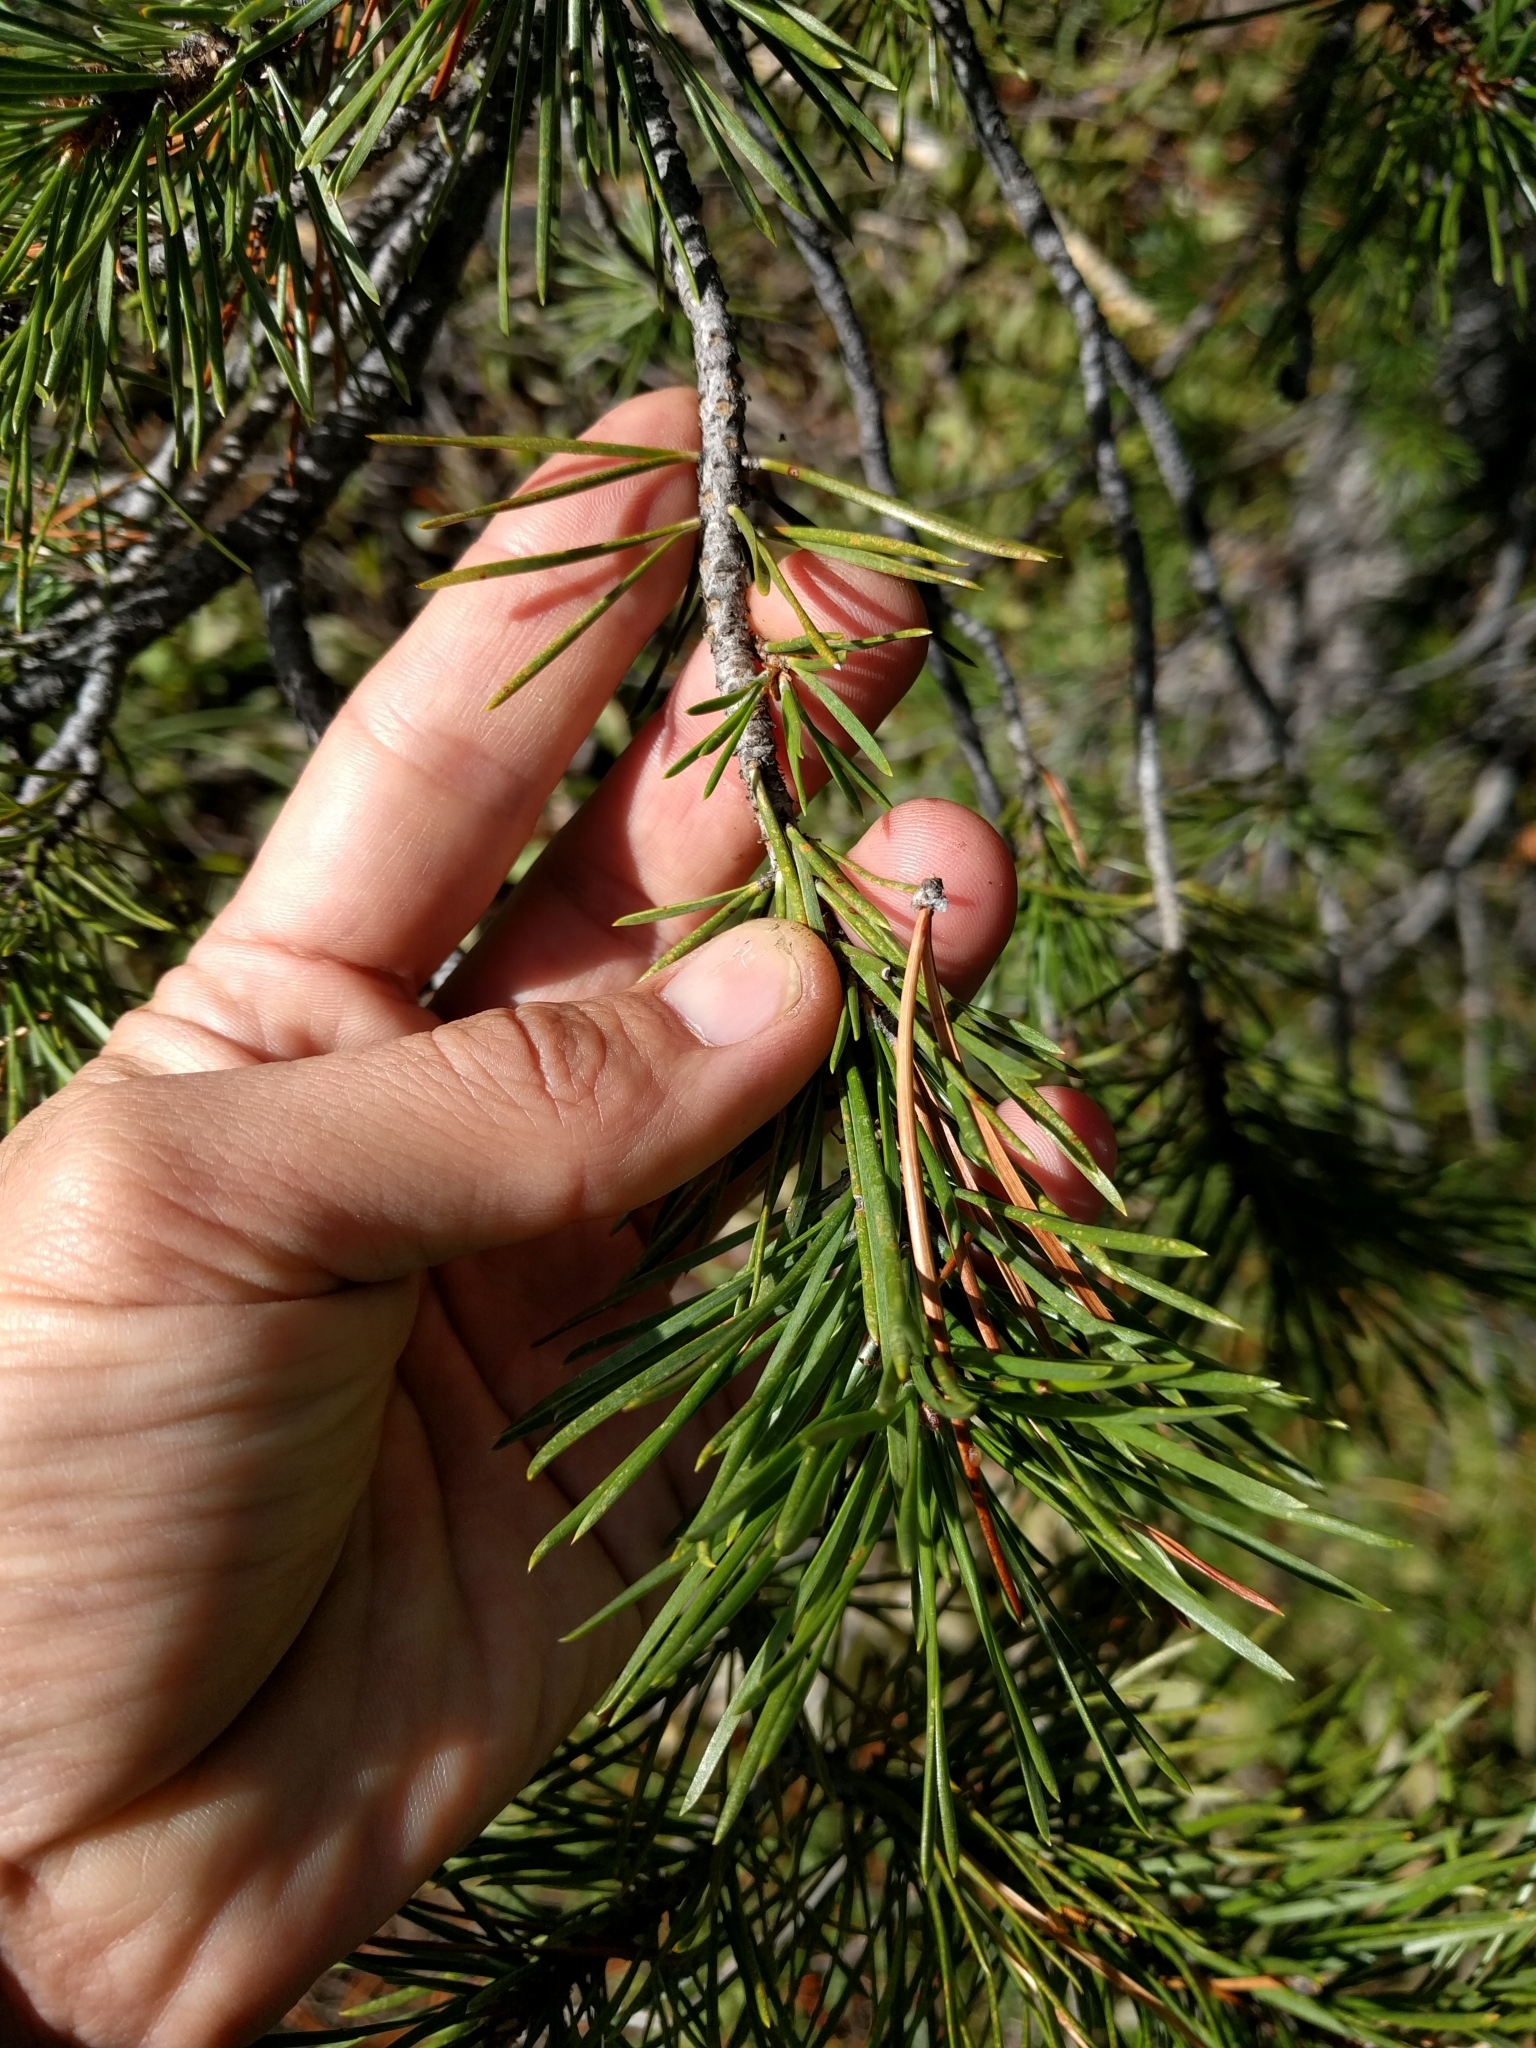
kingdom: Plantae
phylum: Tracheophyta
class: Pinopsida
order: Pinales
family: Pinaceae
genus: Pinus
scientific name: Pinus contorta
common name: Lodgepole pine
